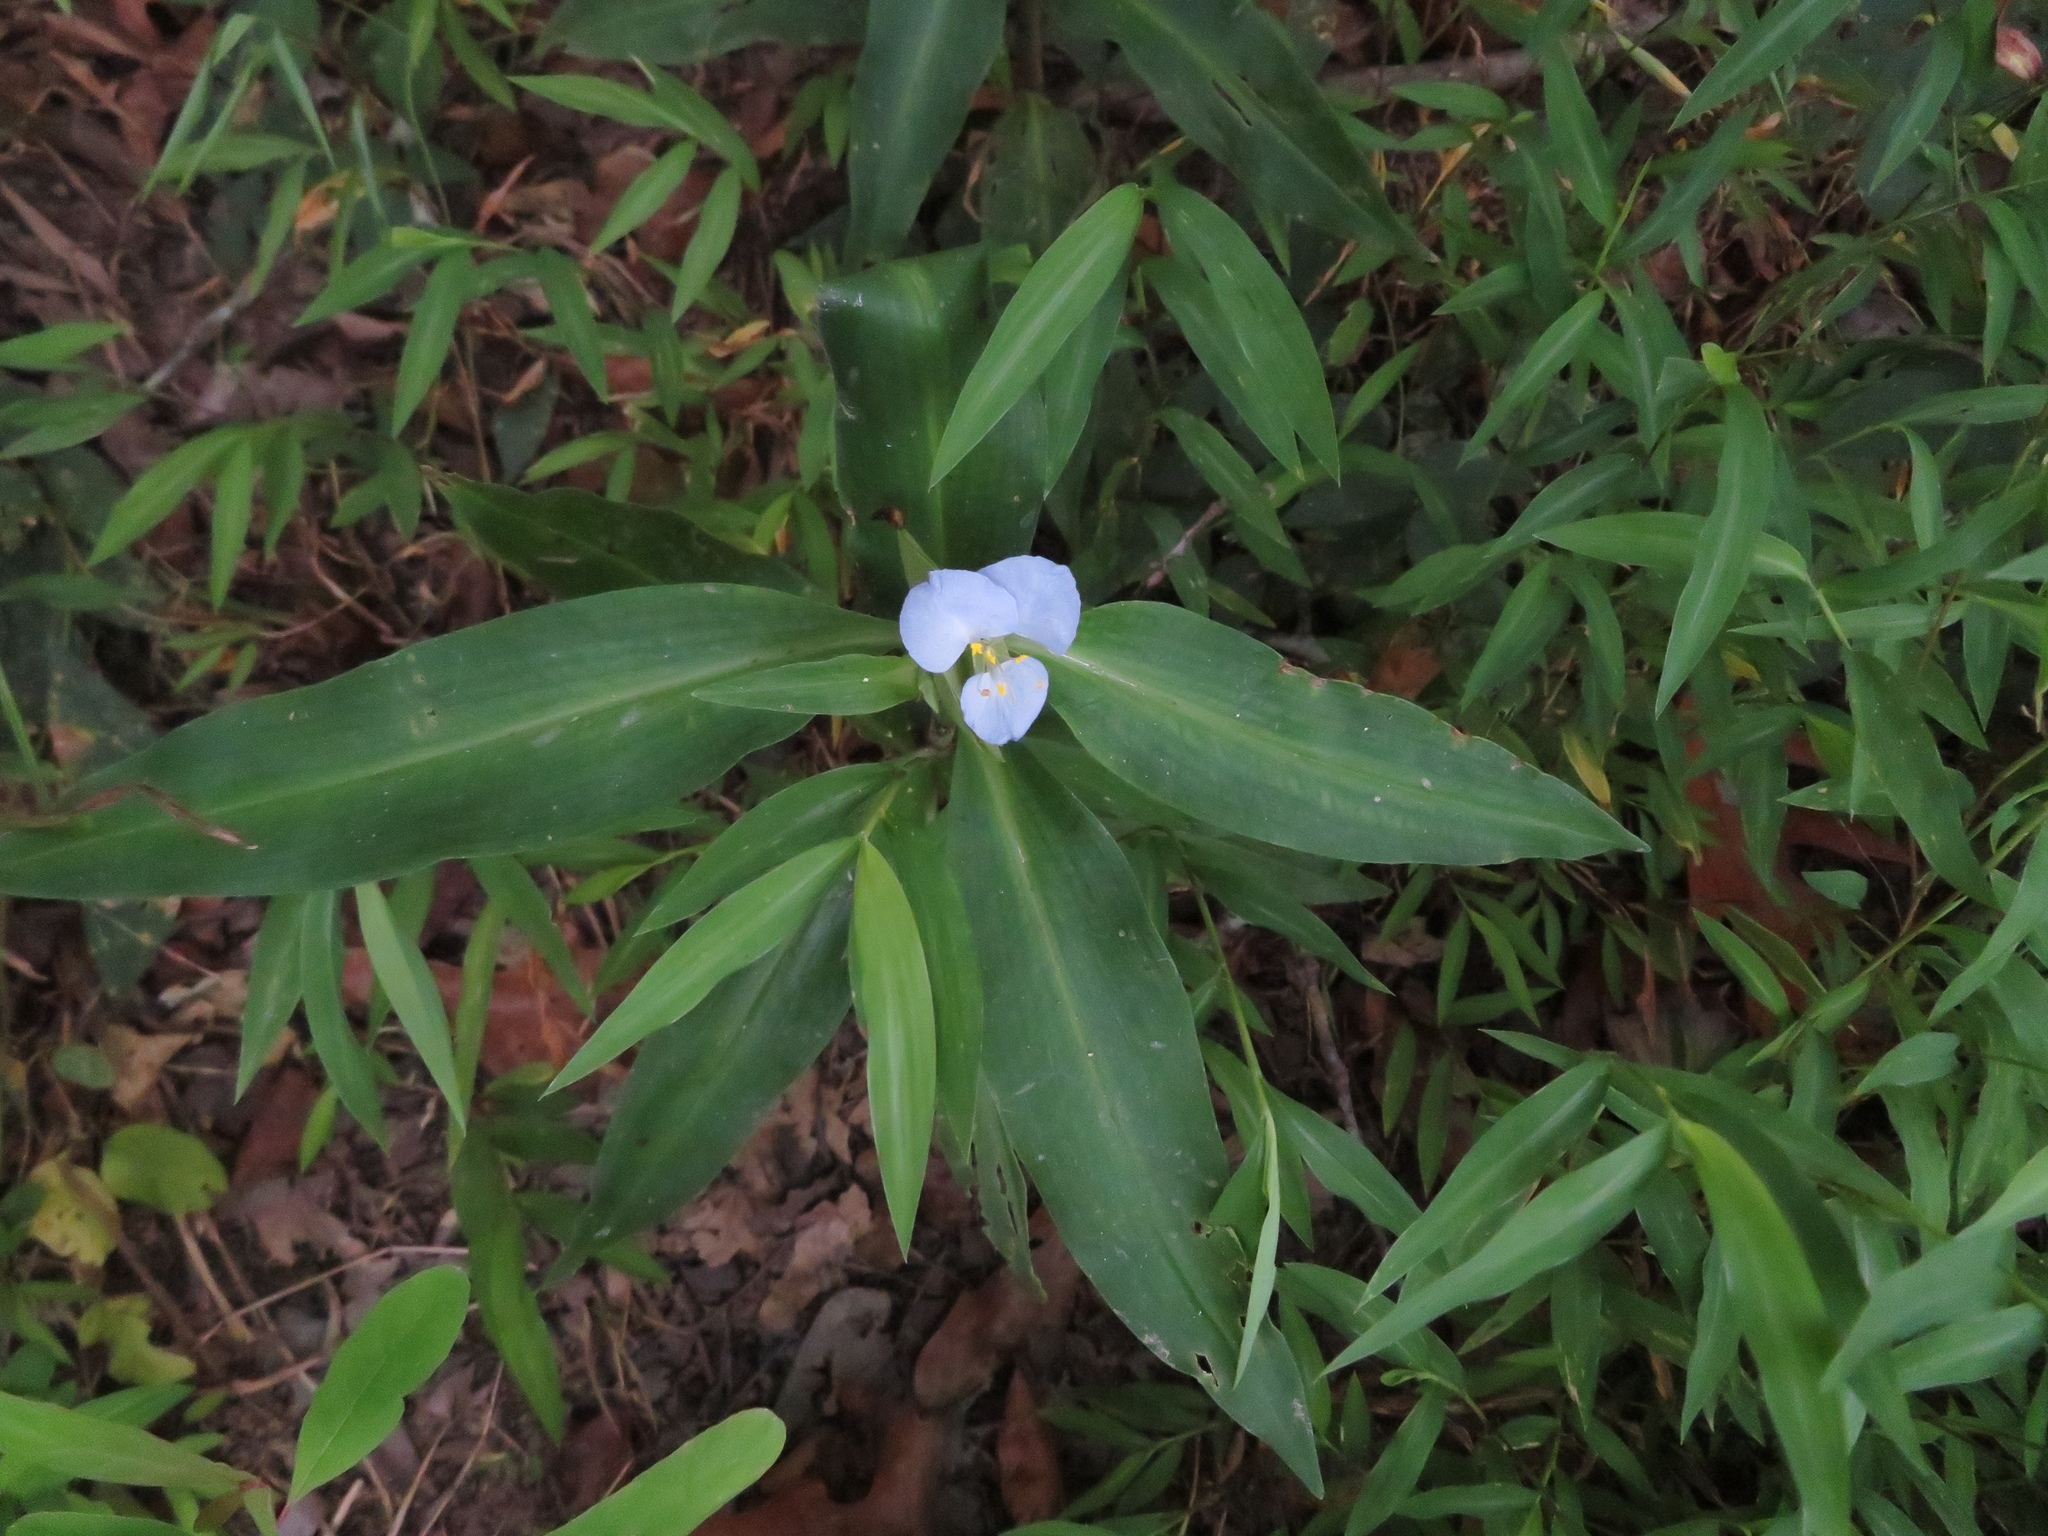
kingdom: Plantae
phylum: Tracheophyta
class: Liliopsida
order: Commelinales
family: Commelinaceae
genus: Commelina
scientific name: Commelina virginica
